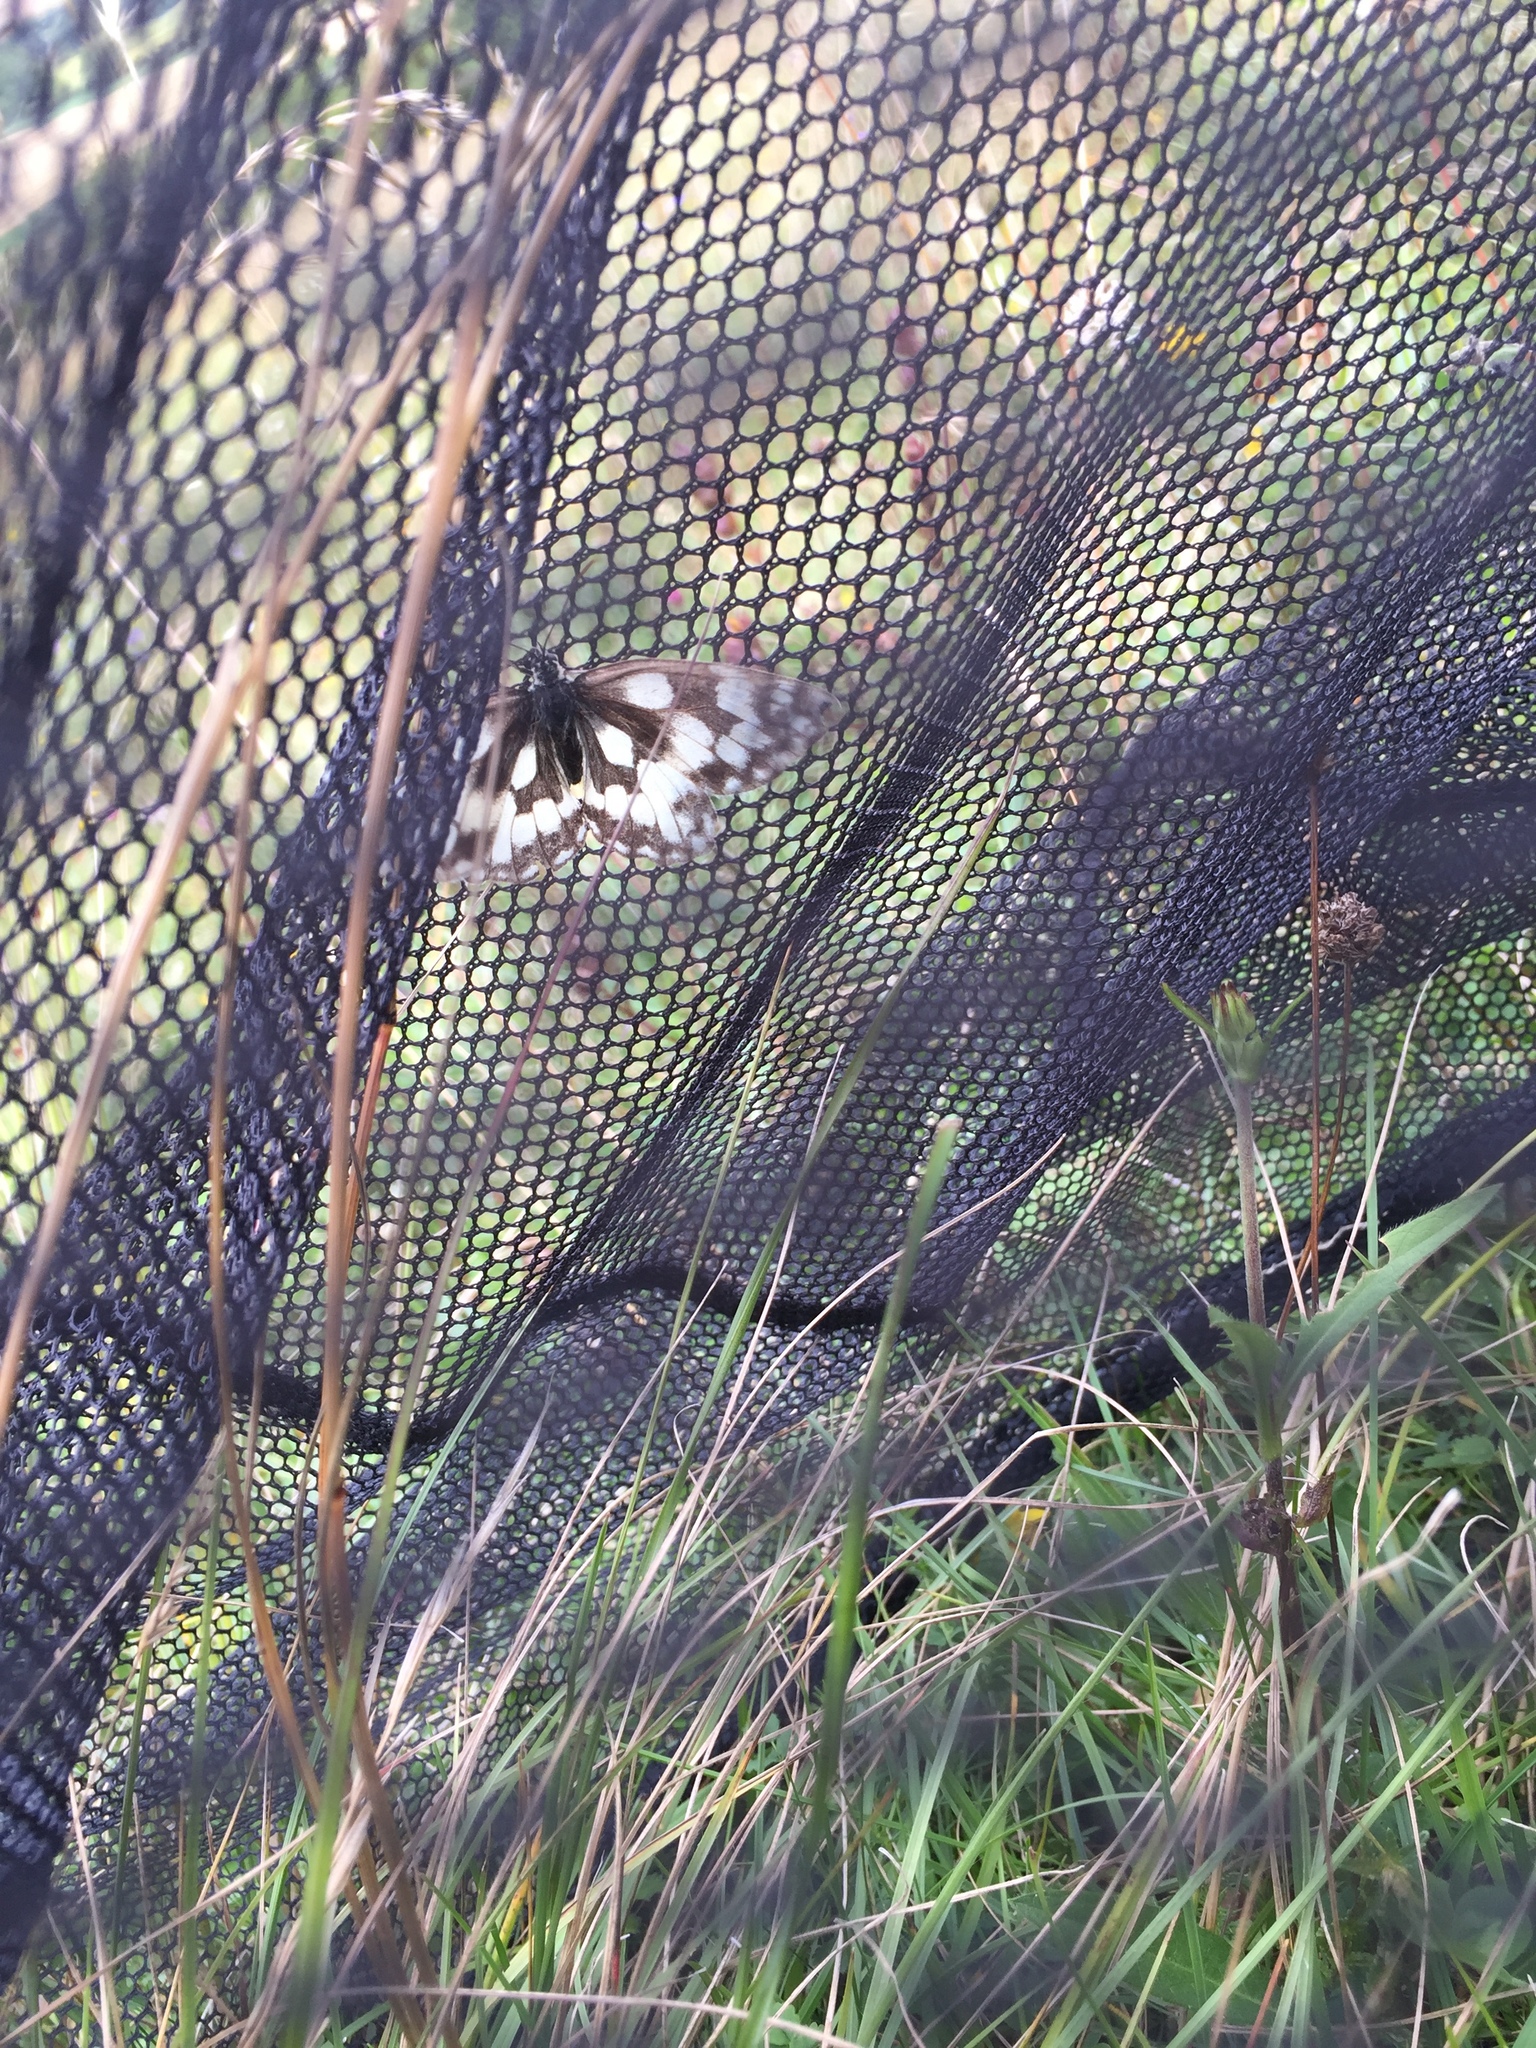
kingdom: Animalia
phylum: Arthropoda
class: Insecta
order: Lepidoptera
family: Nymphalidae
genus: Melanargia
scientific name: Melanargia galathea
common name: Marbled white
